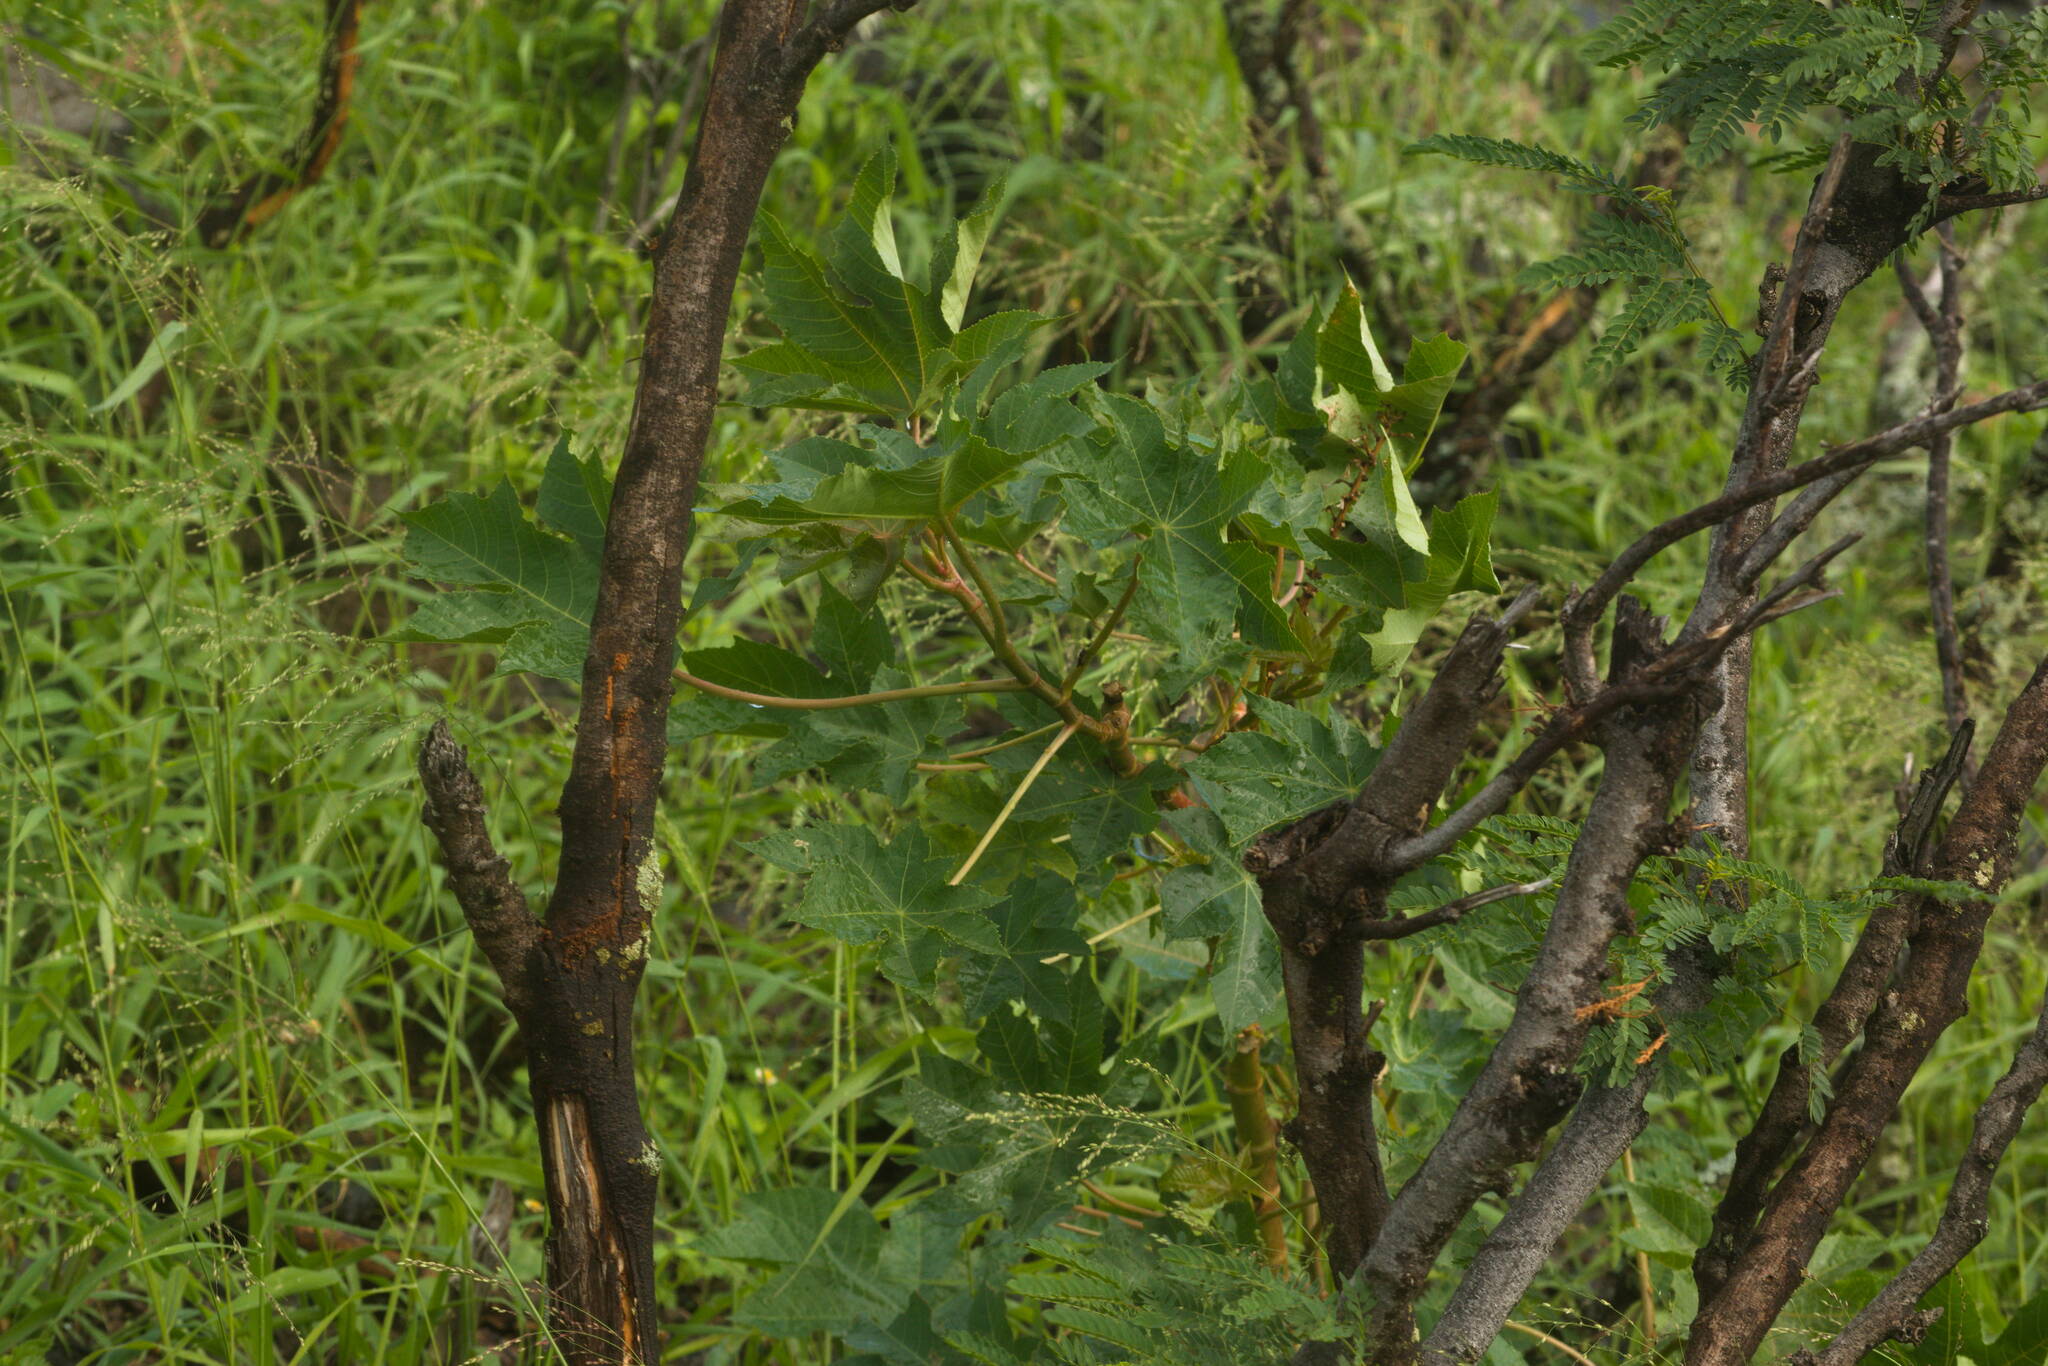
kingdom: Plantae
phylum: Tracheophyta
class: Magnoliopsida
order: Malpighiales
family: Euphorbiaceae
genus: Ricinus
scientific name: Ricinus communis
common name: Castor-oil-plant
